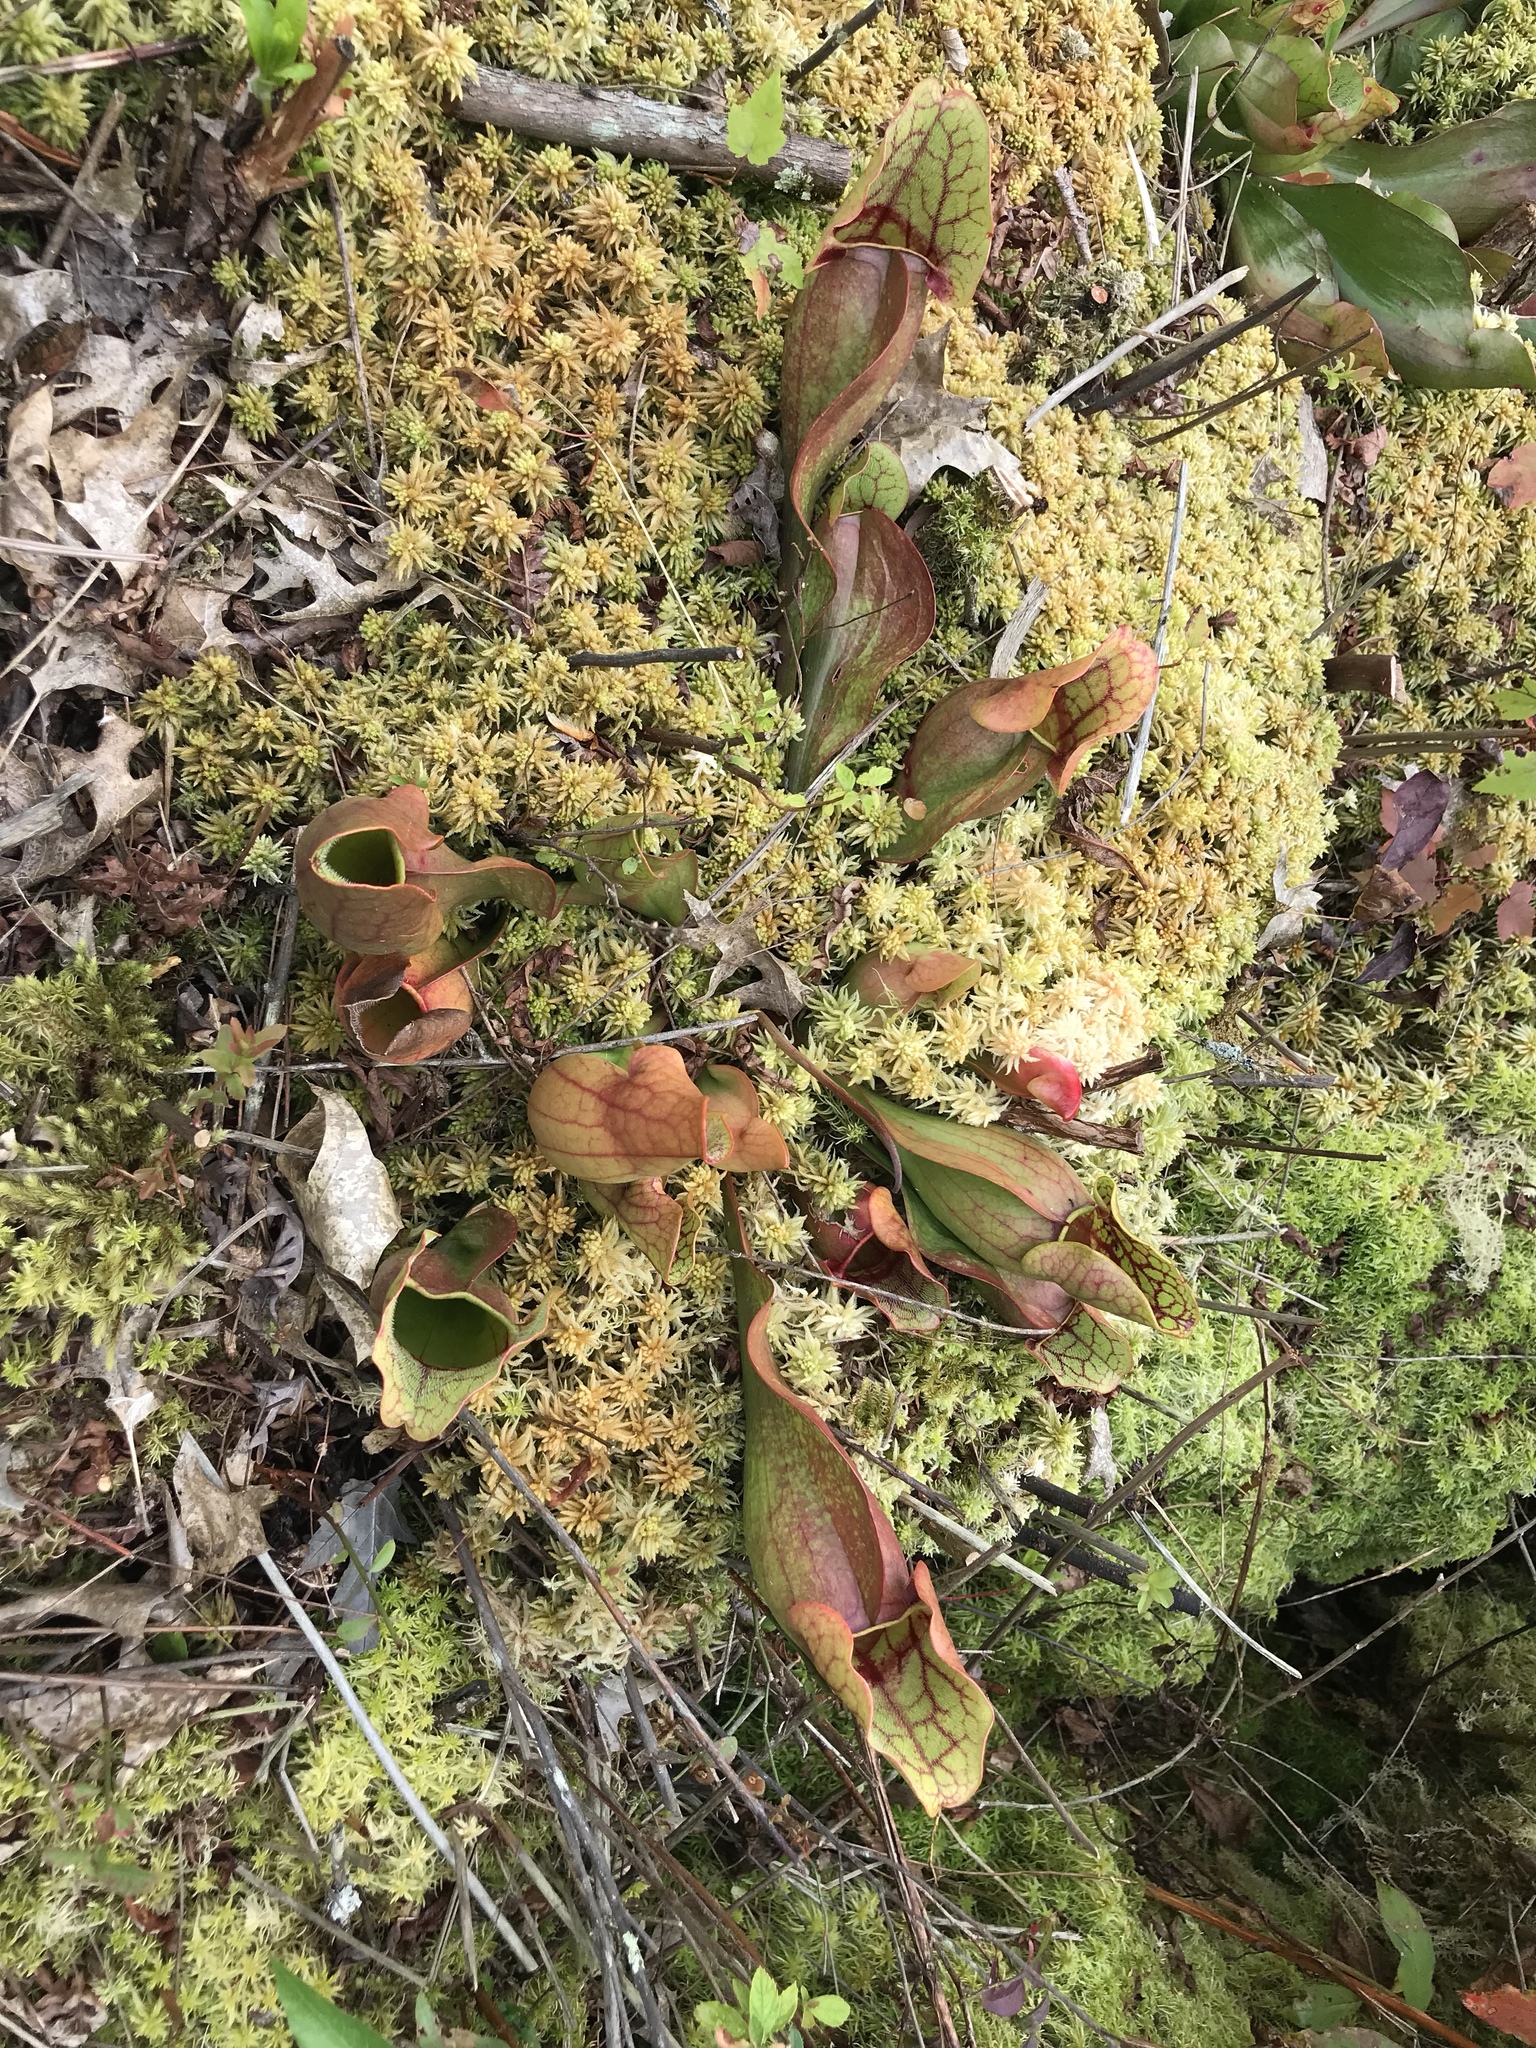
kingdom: Plantae
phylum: Tracheophyta
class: Magnoliopsida
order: Ericales
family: Sarraceniaceae
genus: Sarracenia
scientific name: Sarracenia purpurea
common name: Pitcherplant
